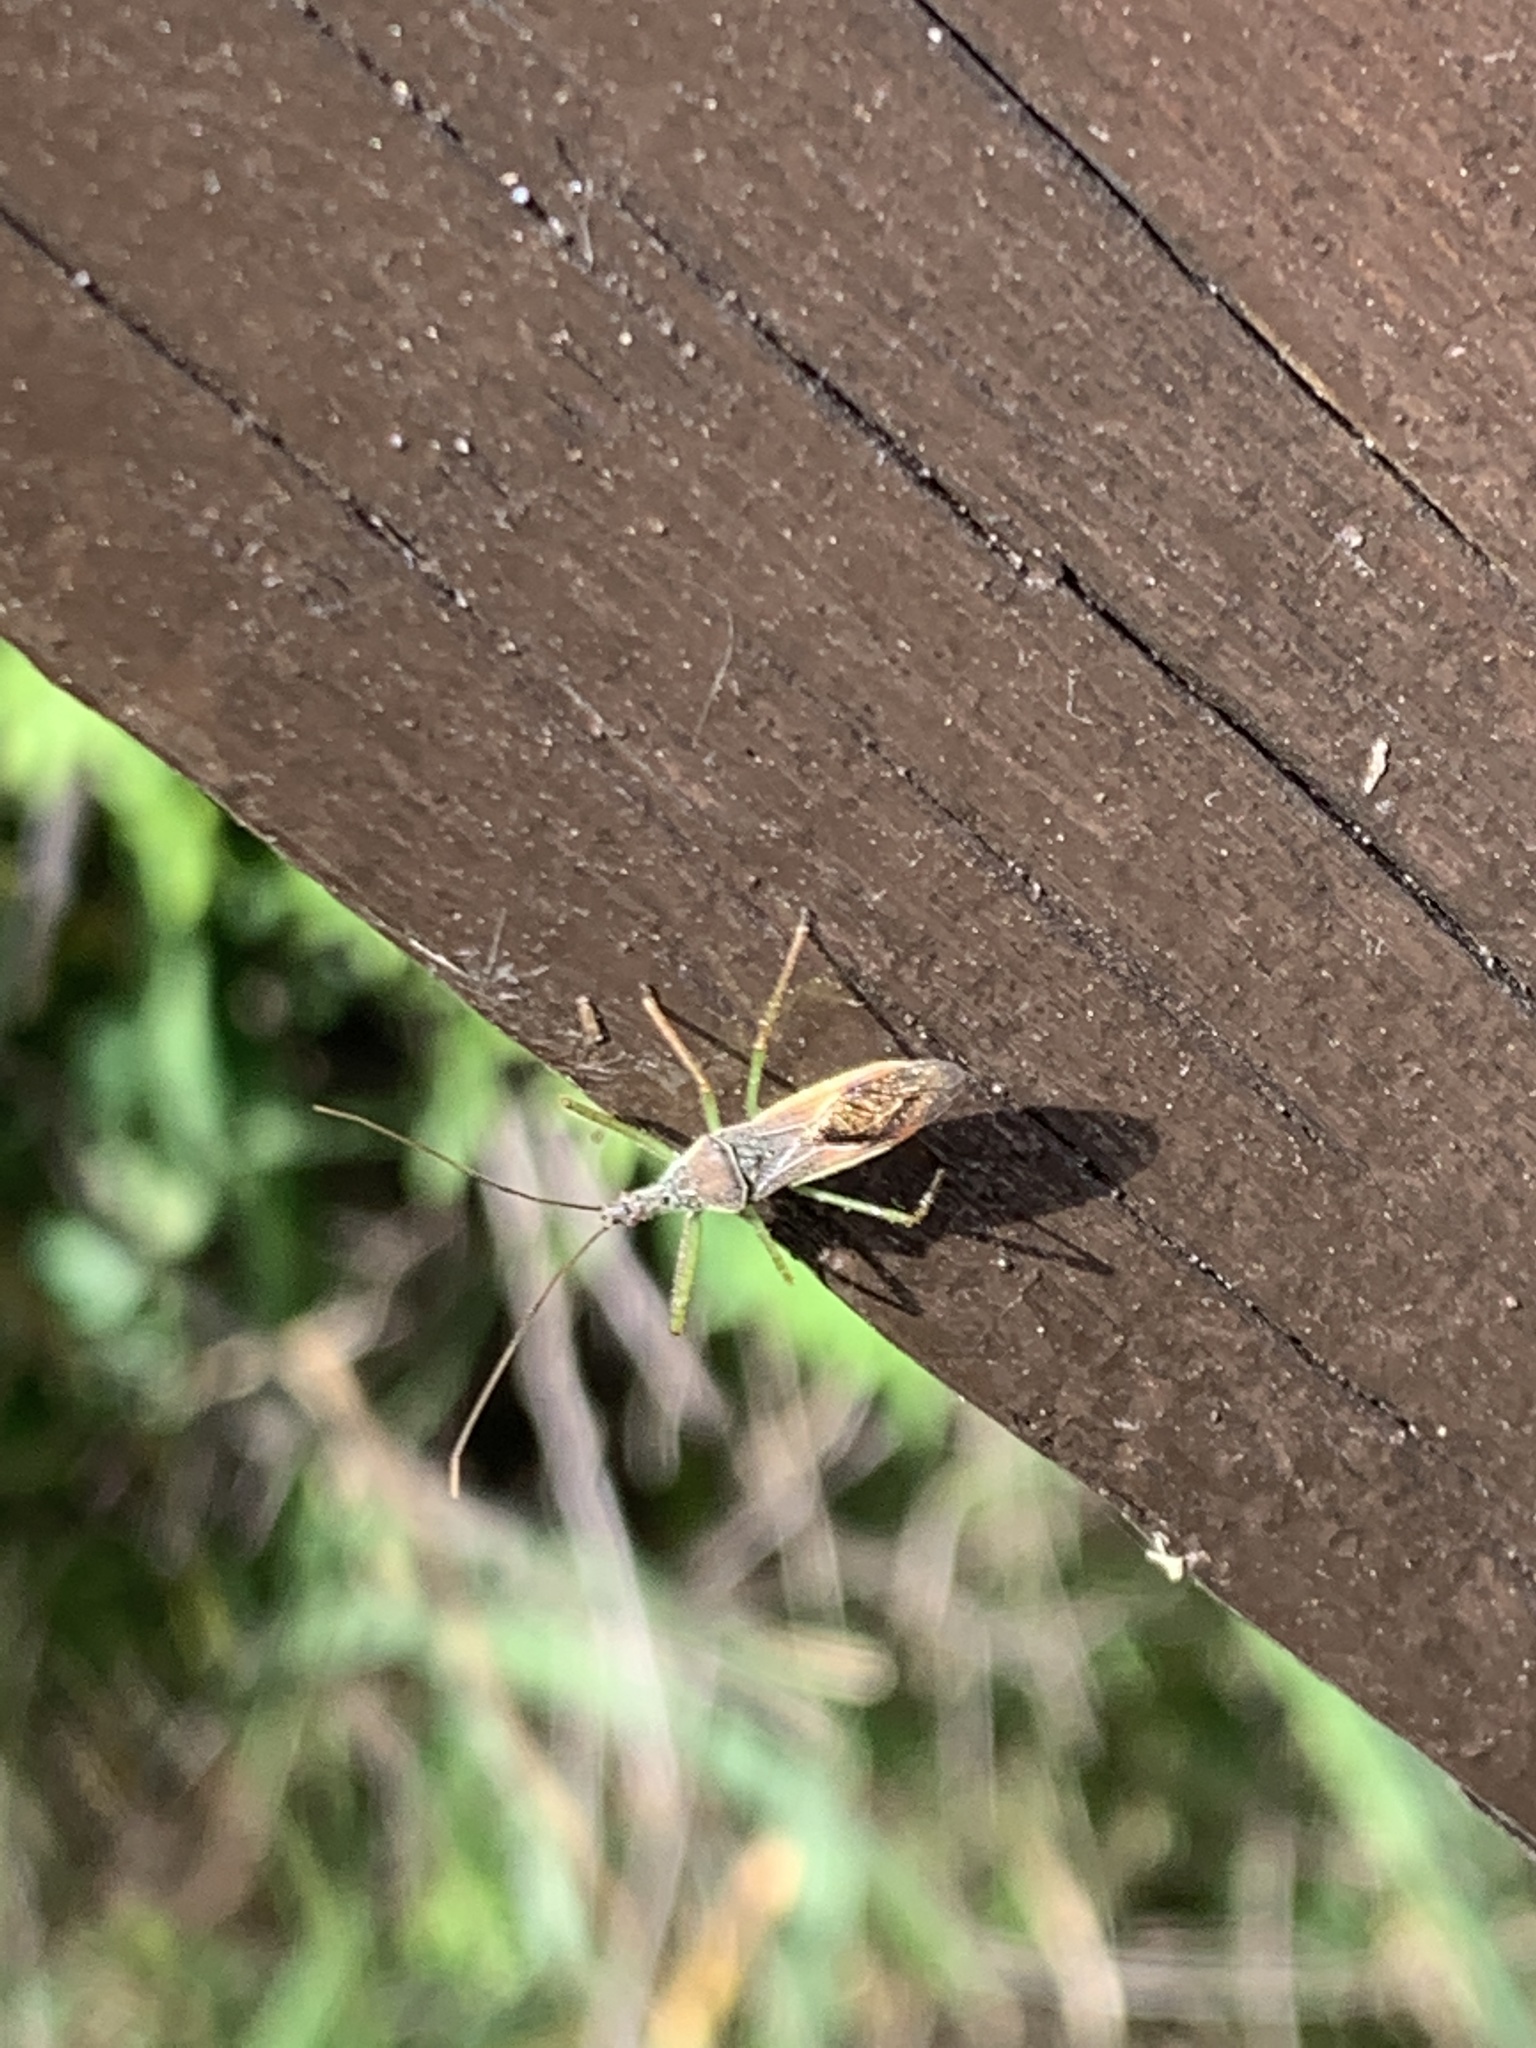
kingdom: Animalia
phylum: Arthropoda
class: Insecta
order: Hemiptera
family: Reduviidae
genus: Zelus
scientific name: Zelus renardii
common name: Assassin bug
